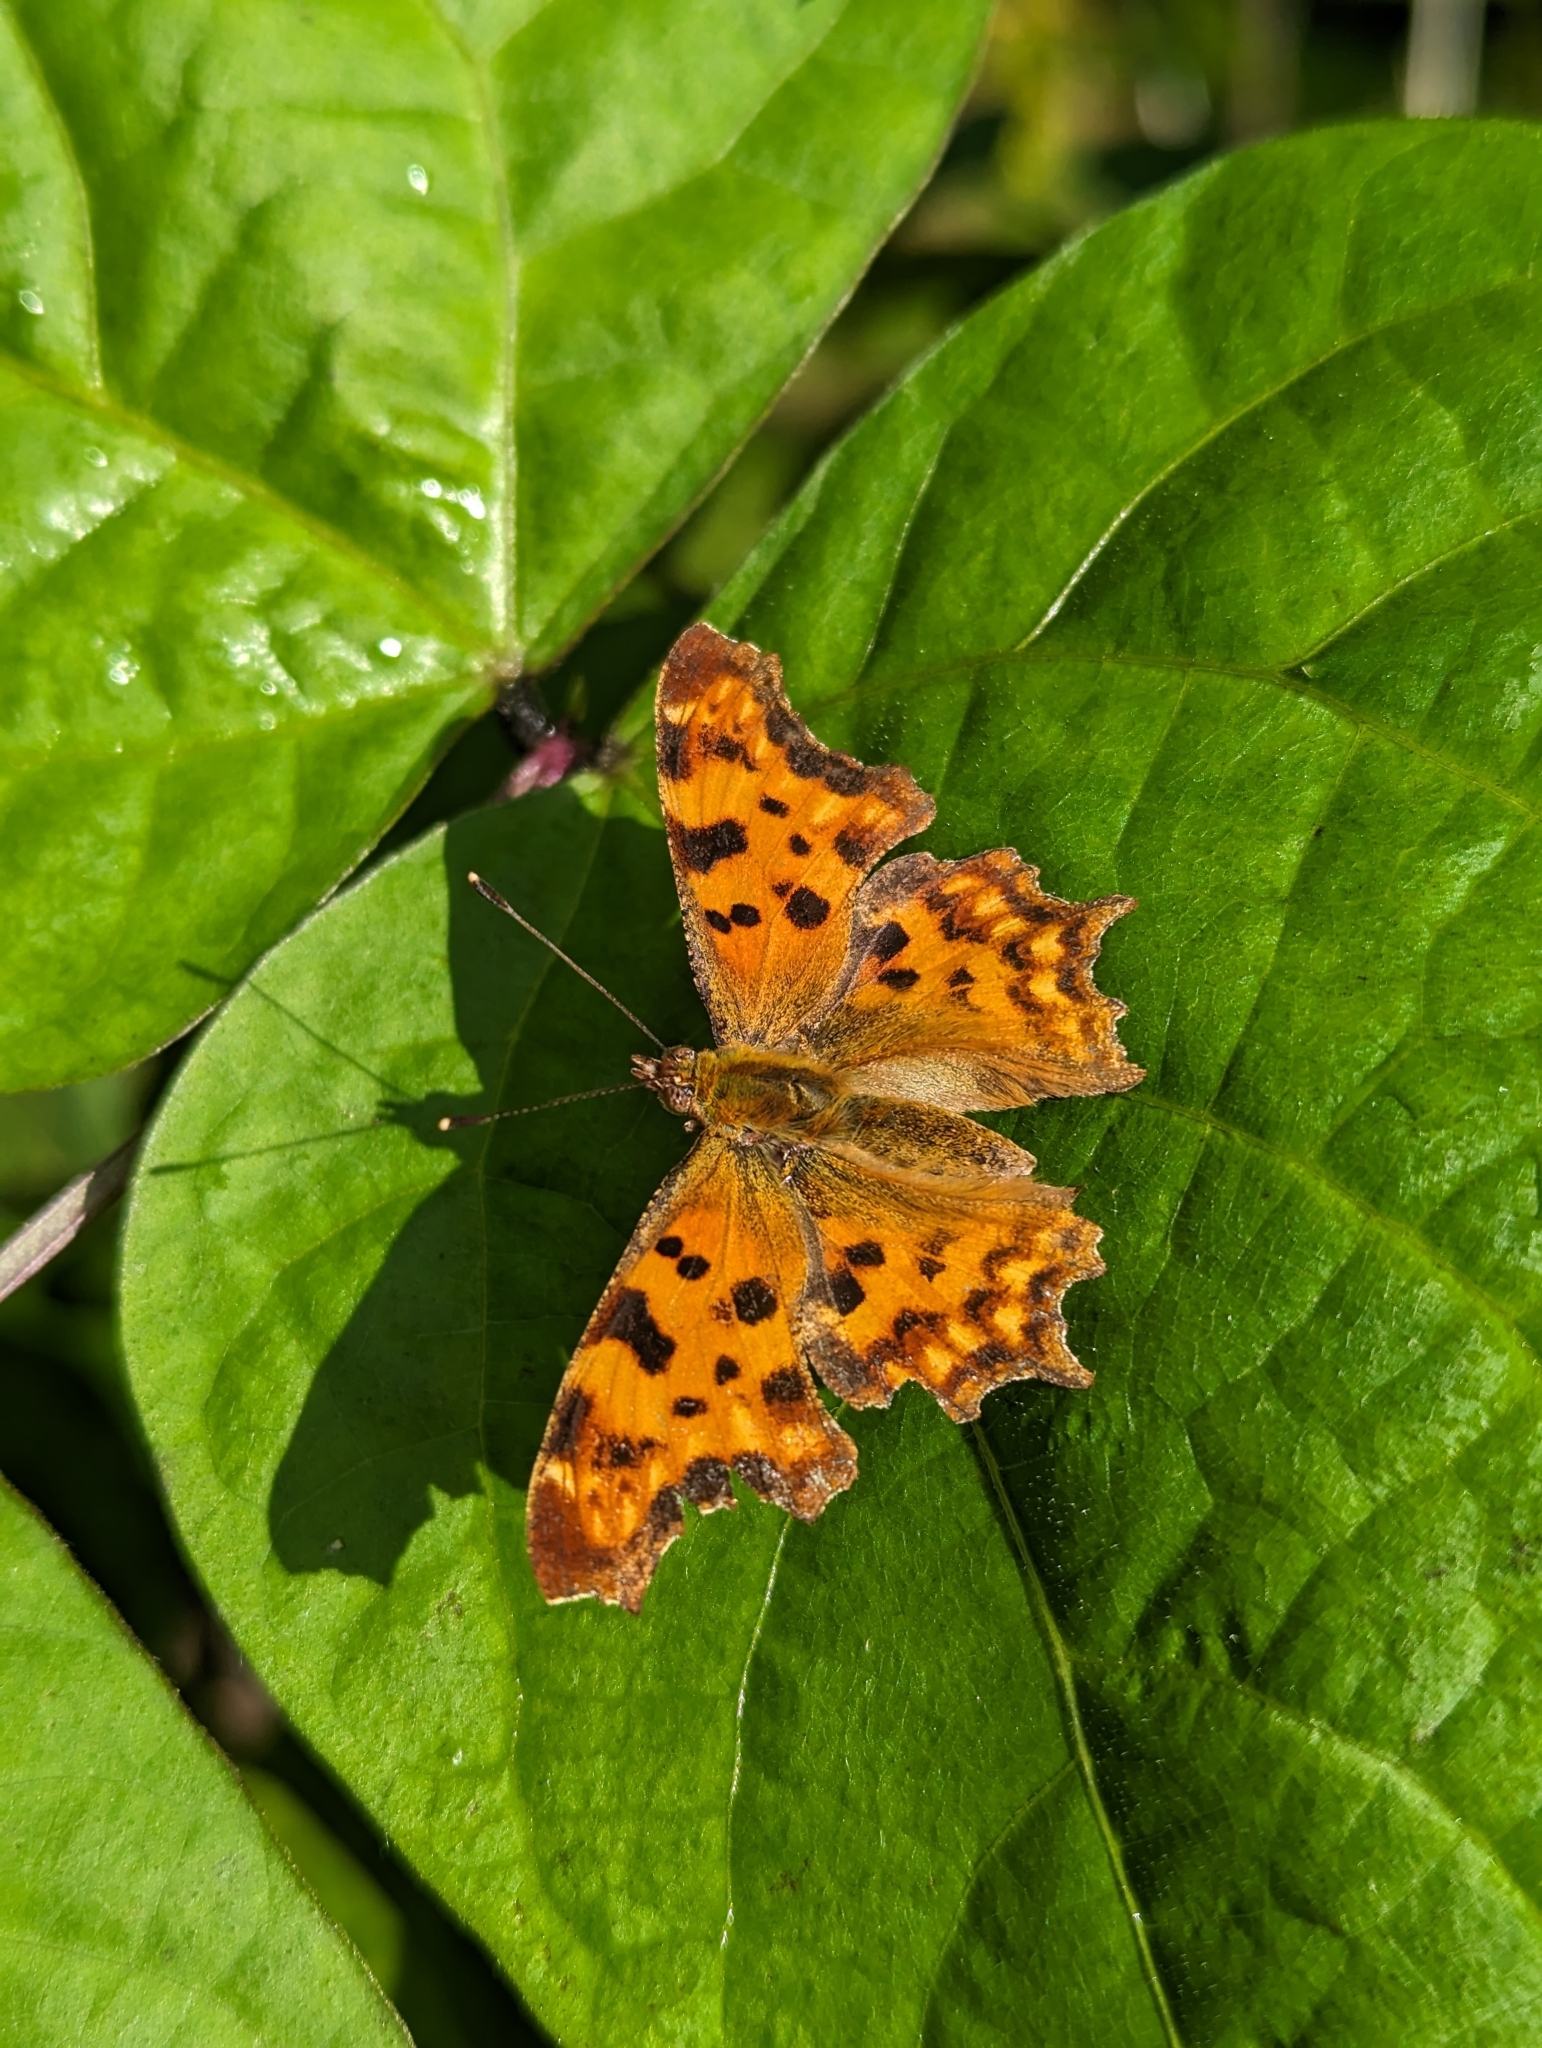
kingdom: Animalia
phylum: Arthropoda
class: Insecta
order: Lepidoptera
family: Nymphalidae
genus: Polygonia
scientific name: Polygonia c-album
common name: Comma
